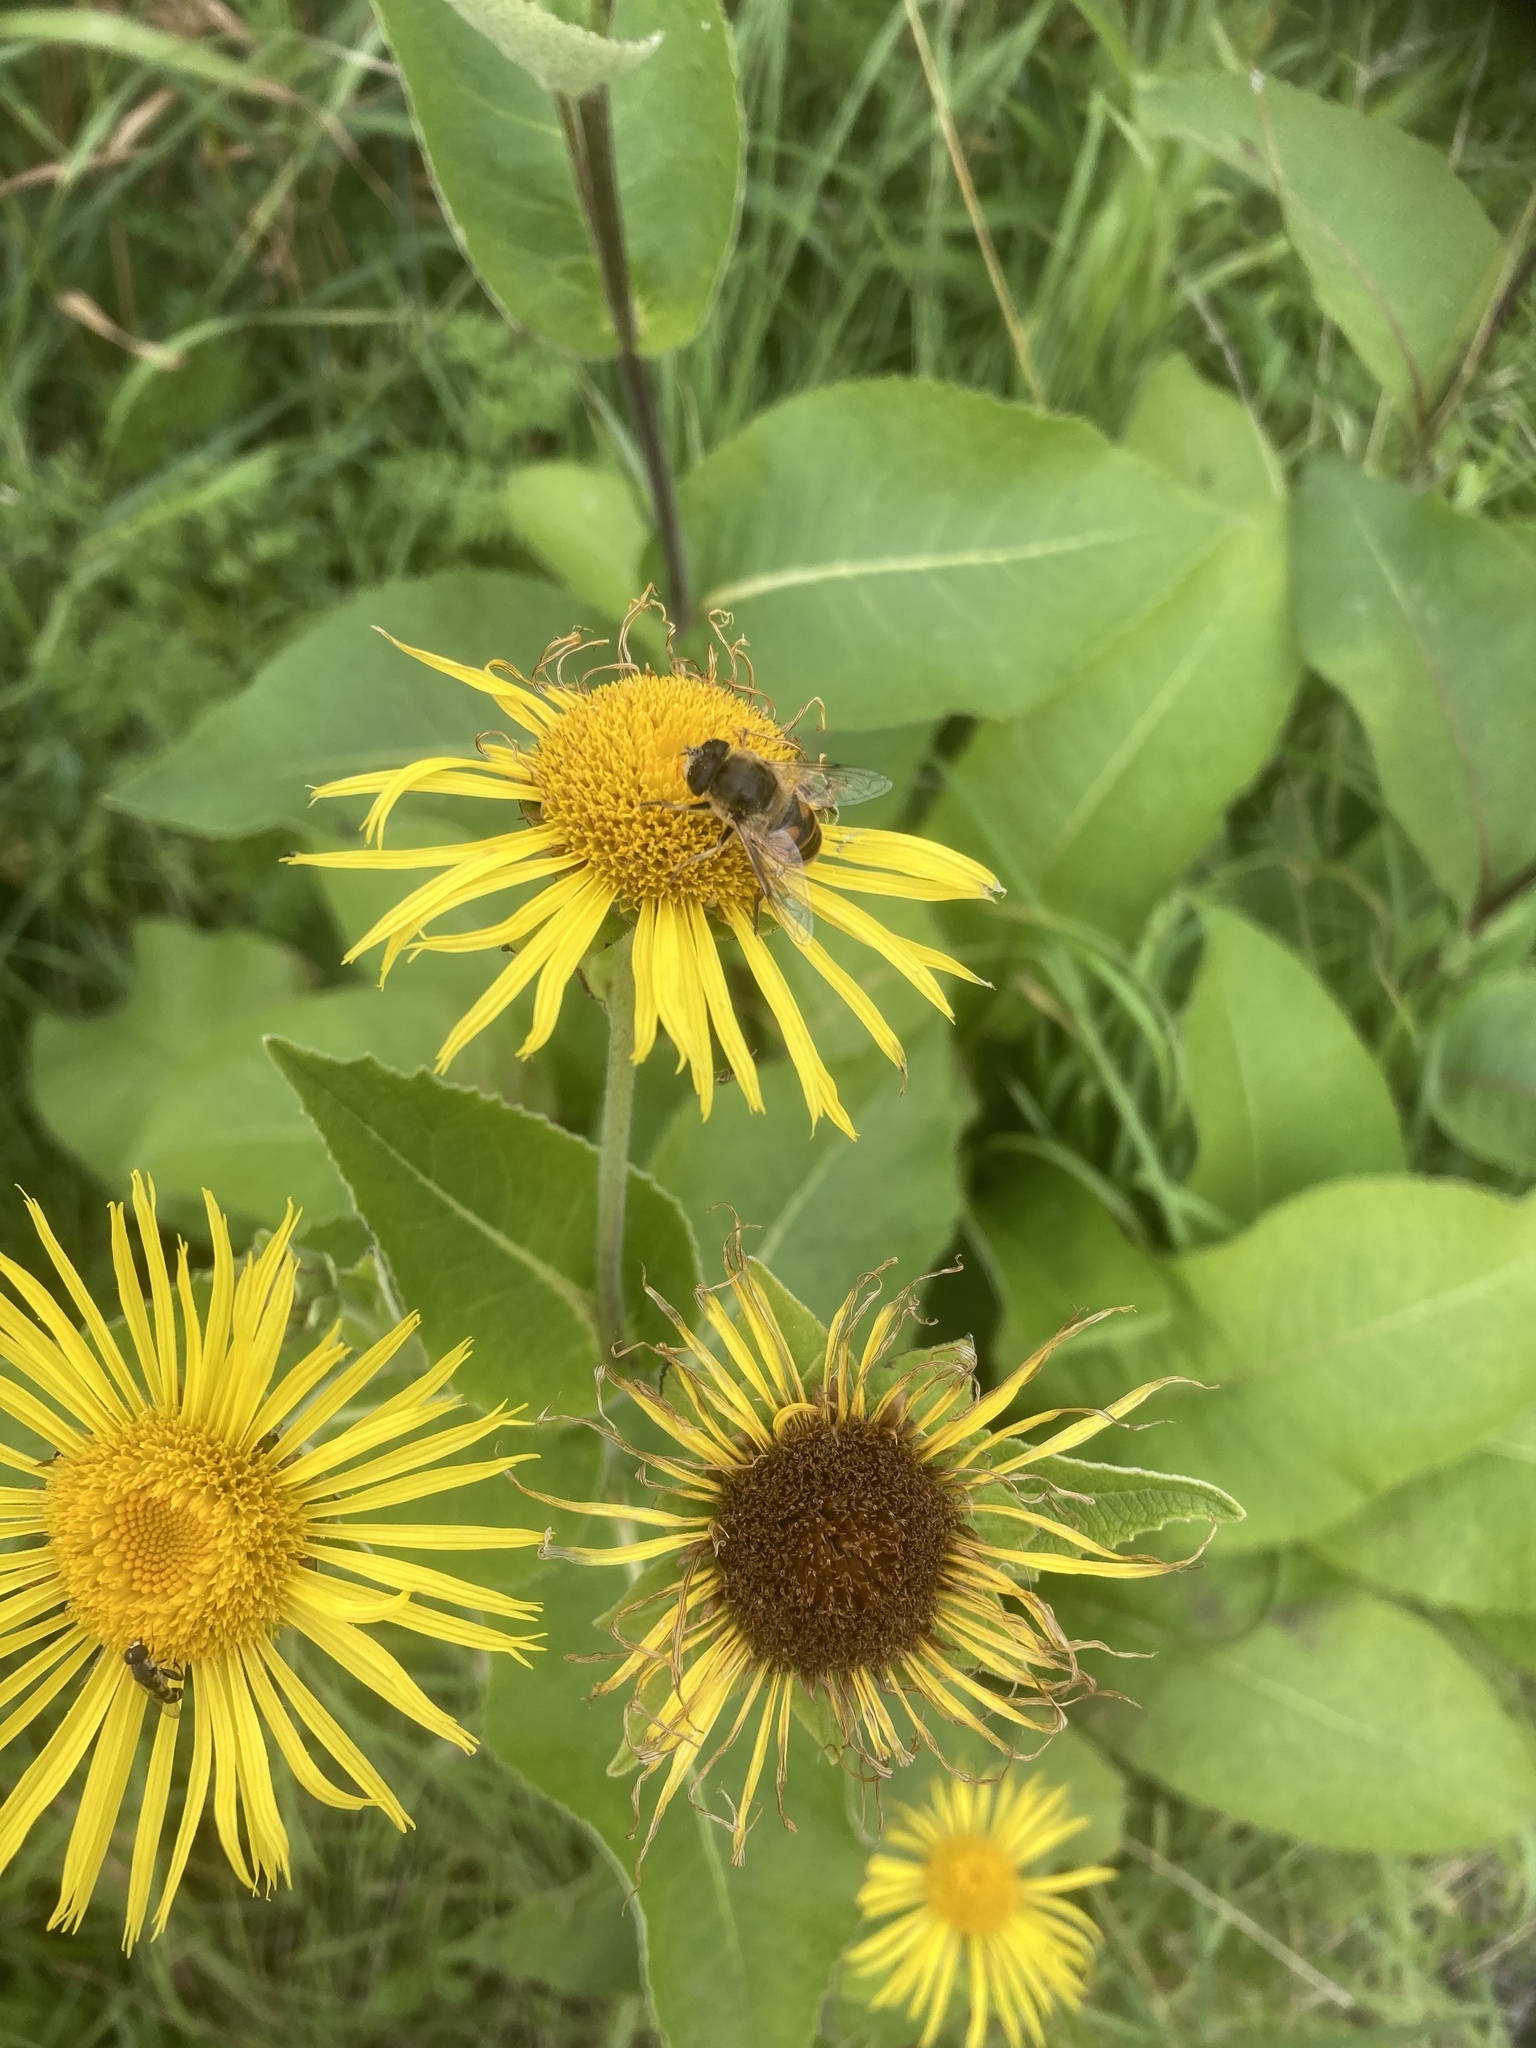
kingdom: Plantae
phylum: Tracheophyta
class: Magnoliopsida
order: Asterales
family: Asteraceae
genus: Inula
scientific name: Inula helenium
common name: Elecampane
